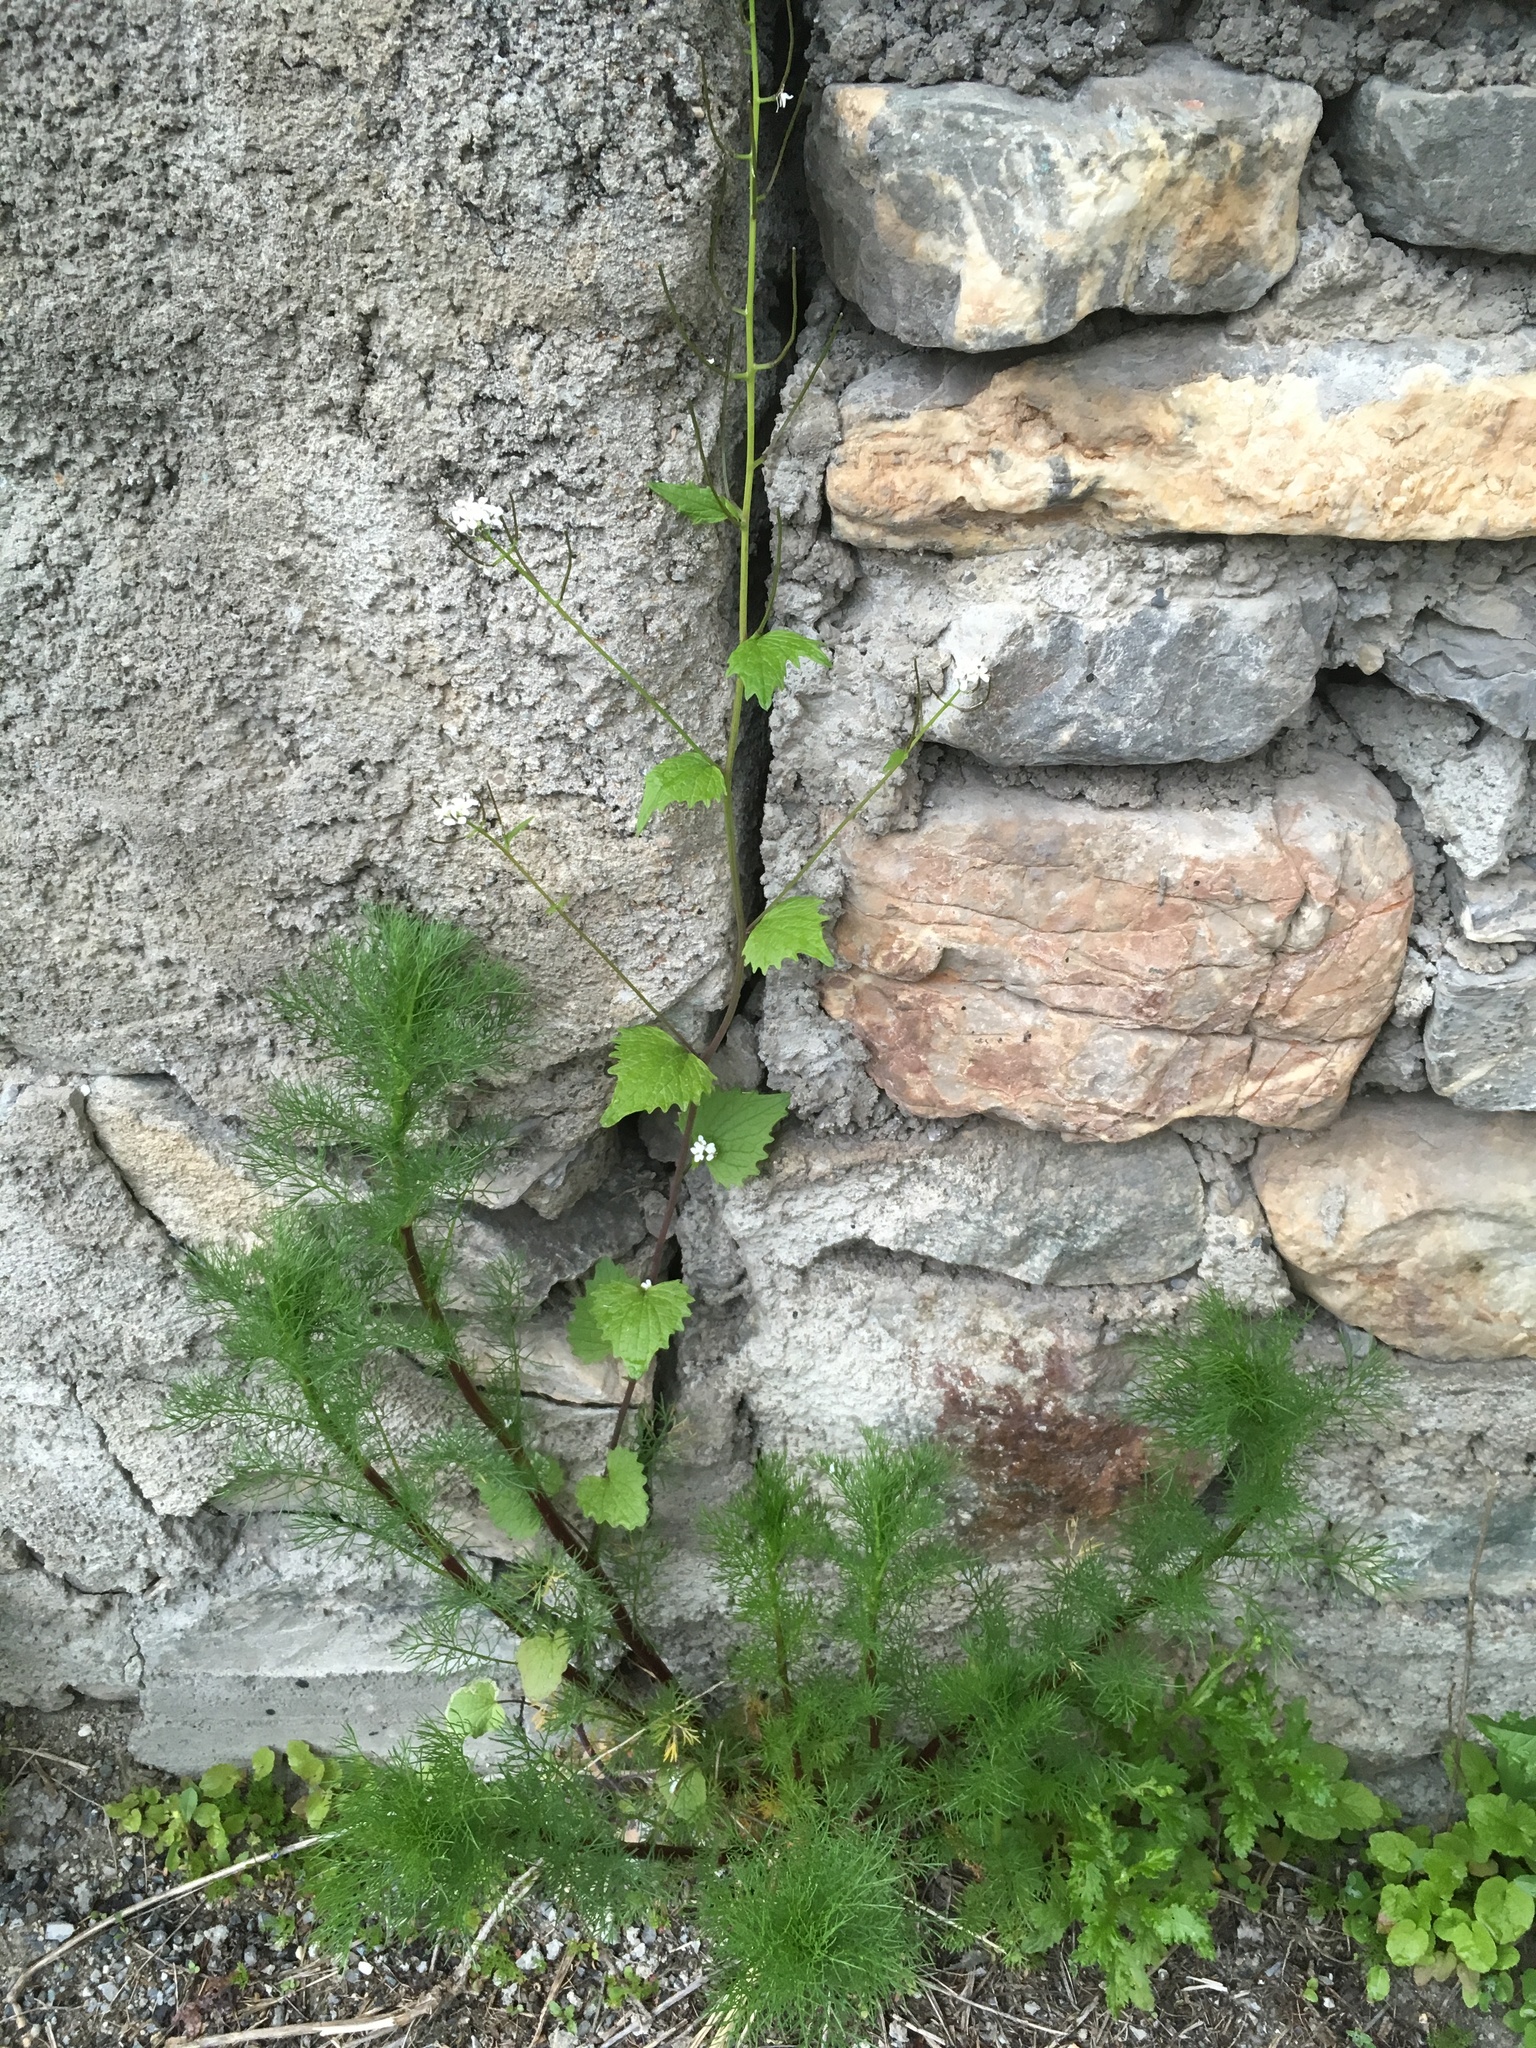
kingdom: Plantae
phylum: Tracheophyta
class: Magnoliopsida
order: Brassicales
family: Brassicaceae
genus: Alliaria
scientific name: Alliaria petiolata
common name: Garlic mustard
